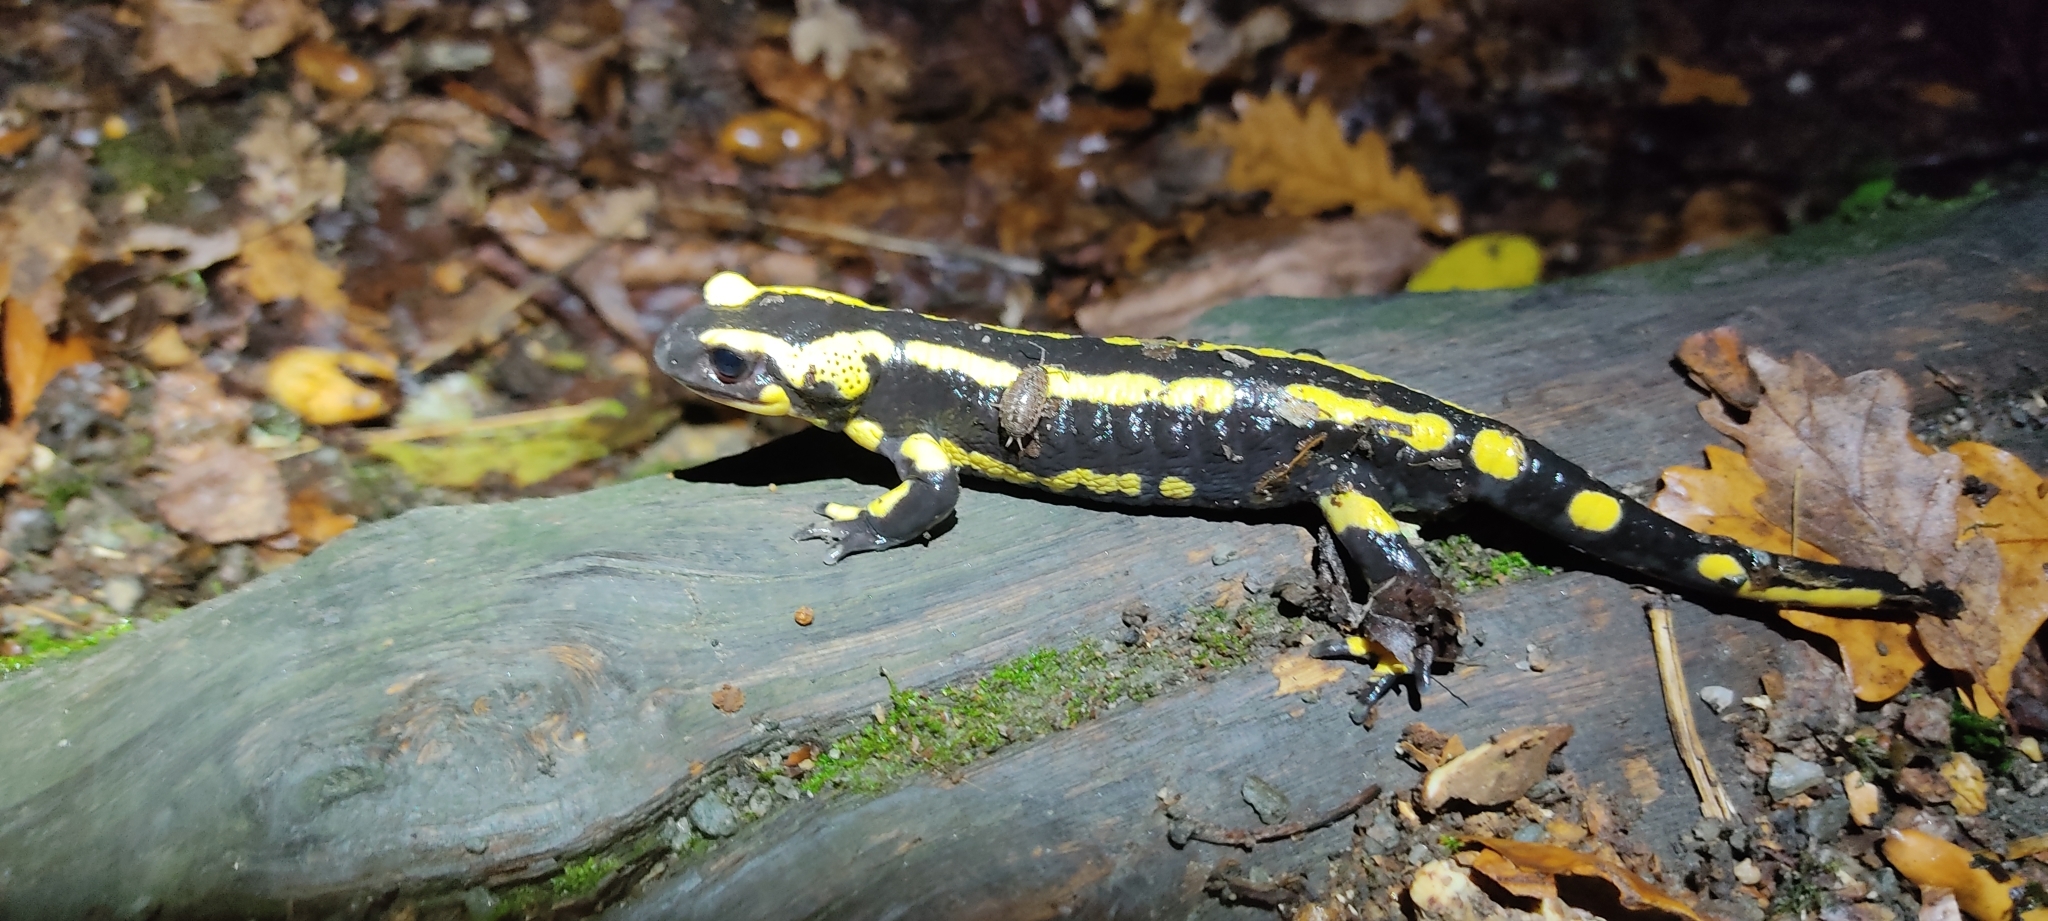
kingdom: Animalia
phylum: Chordata
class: Amphibia
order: Caudata
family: Salamandridae
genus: Salamandra
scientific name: Salamandra salamandra
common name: Fire salamander
